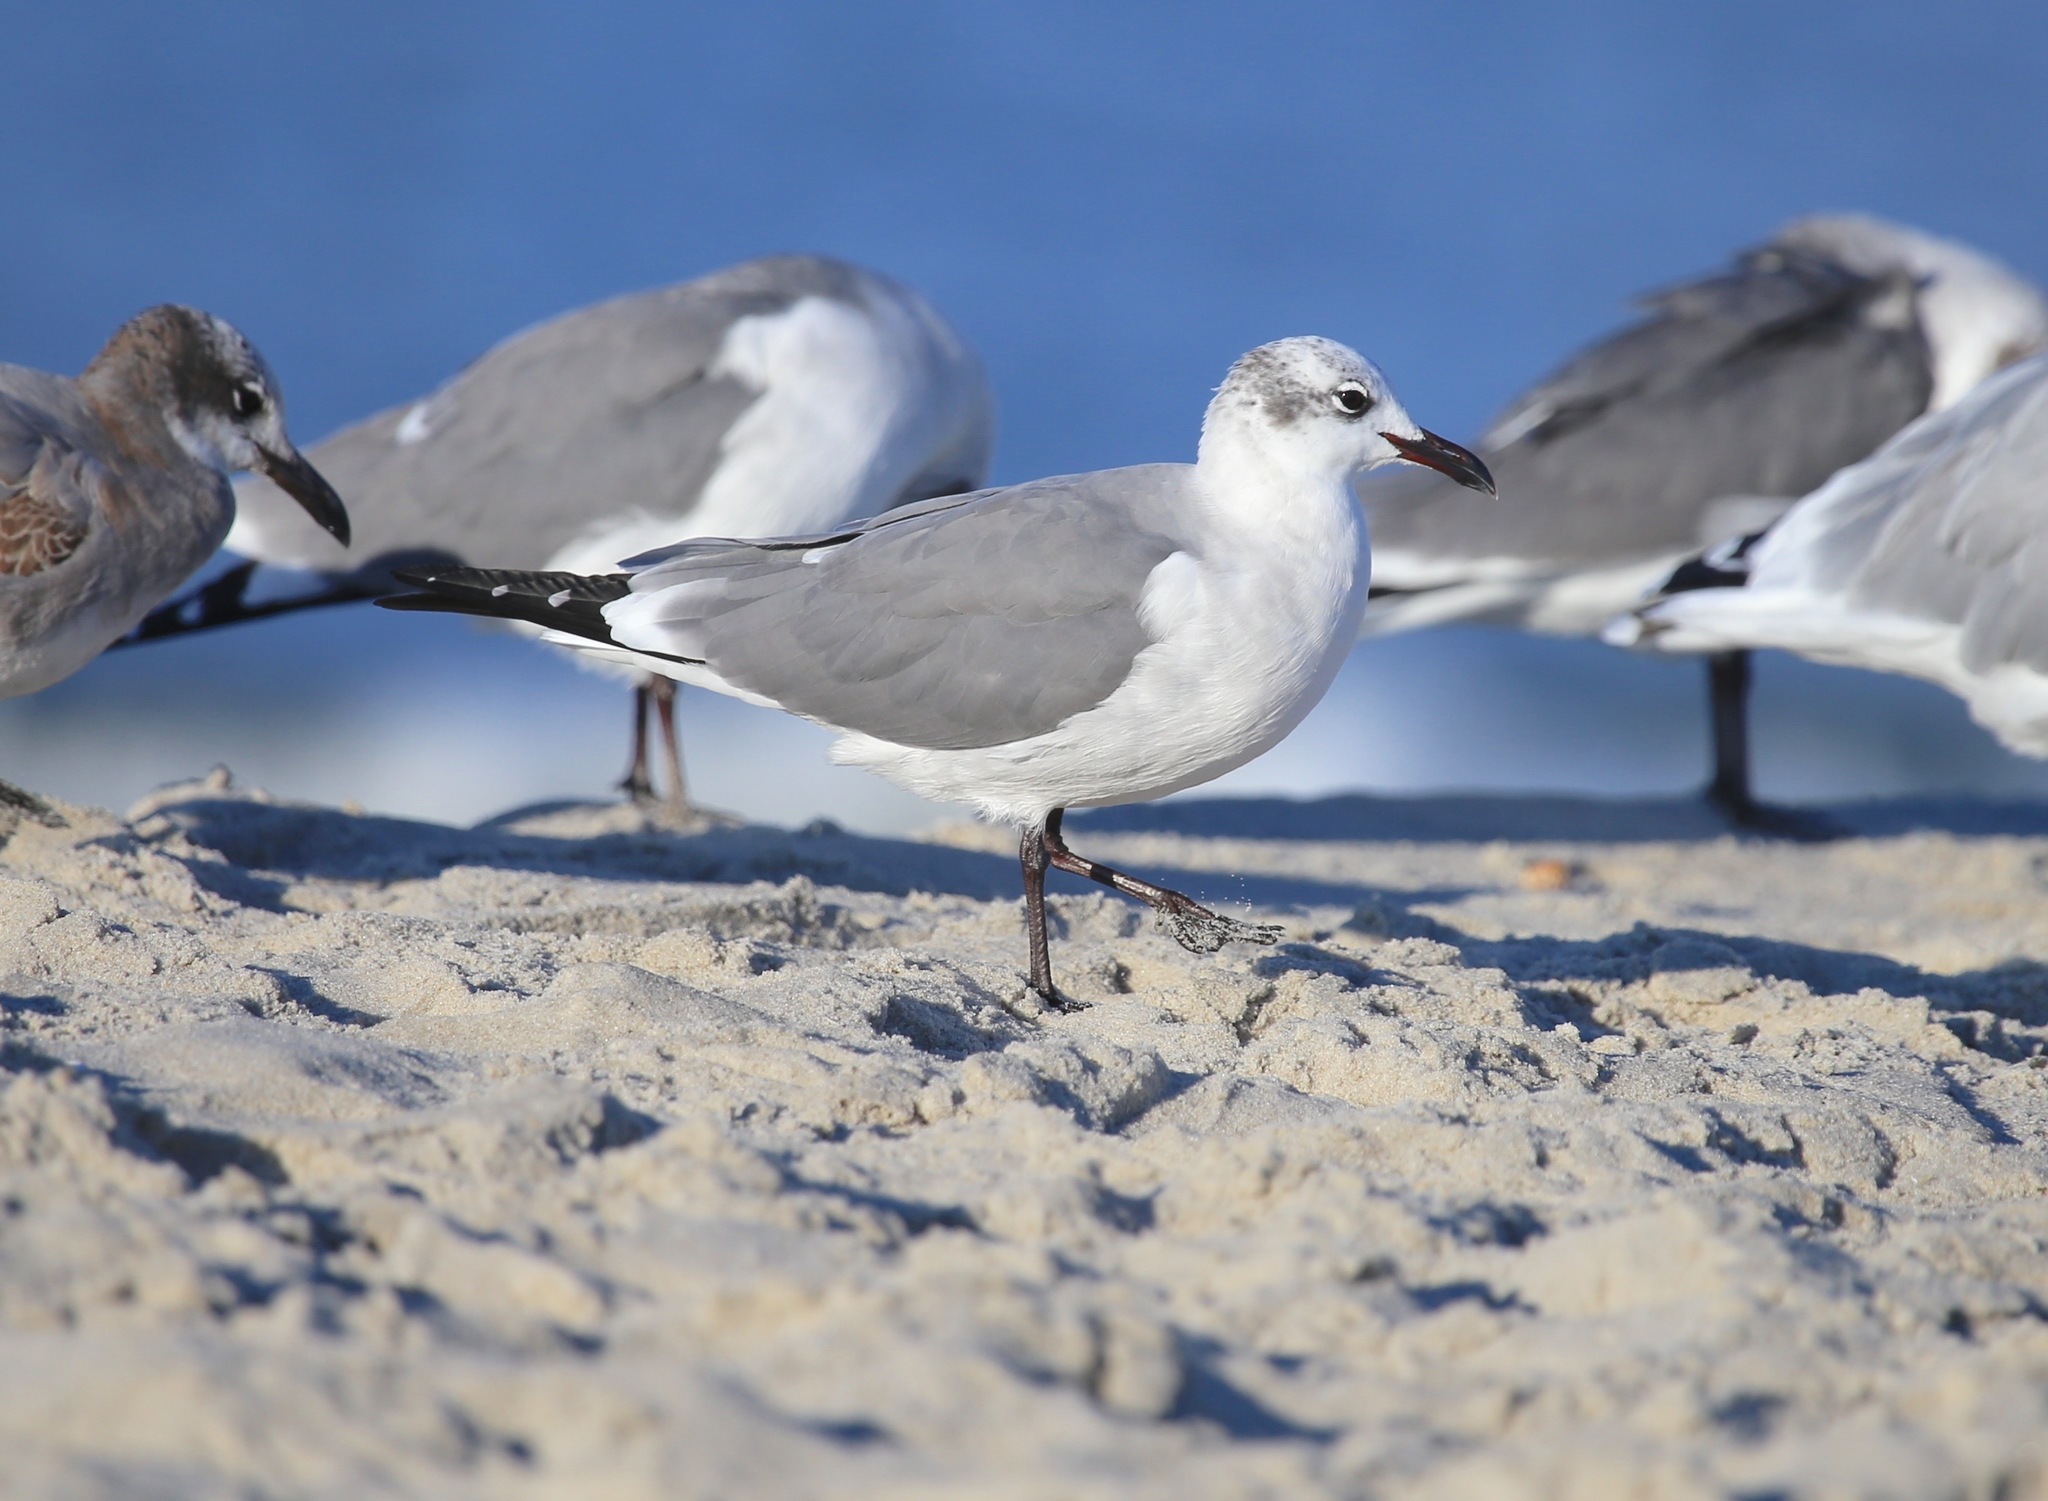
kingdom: Animalia
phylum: Chordata
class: Aves
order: Charadriiformes
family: Laridae
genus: Leucophaeus
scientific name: Leucophaeus atricilla
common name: Laughing gull
